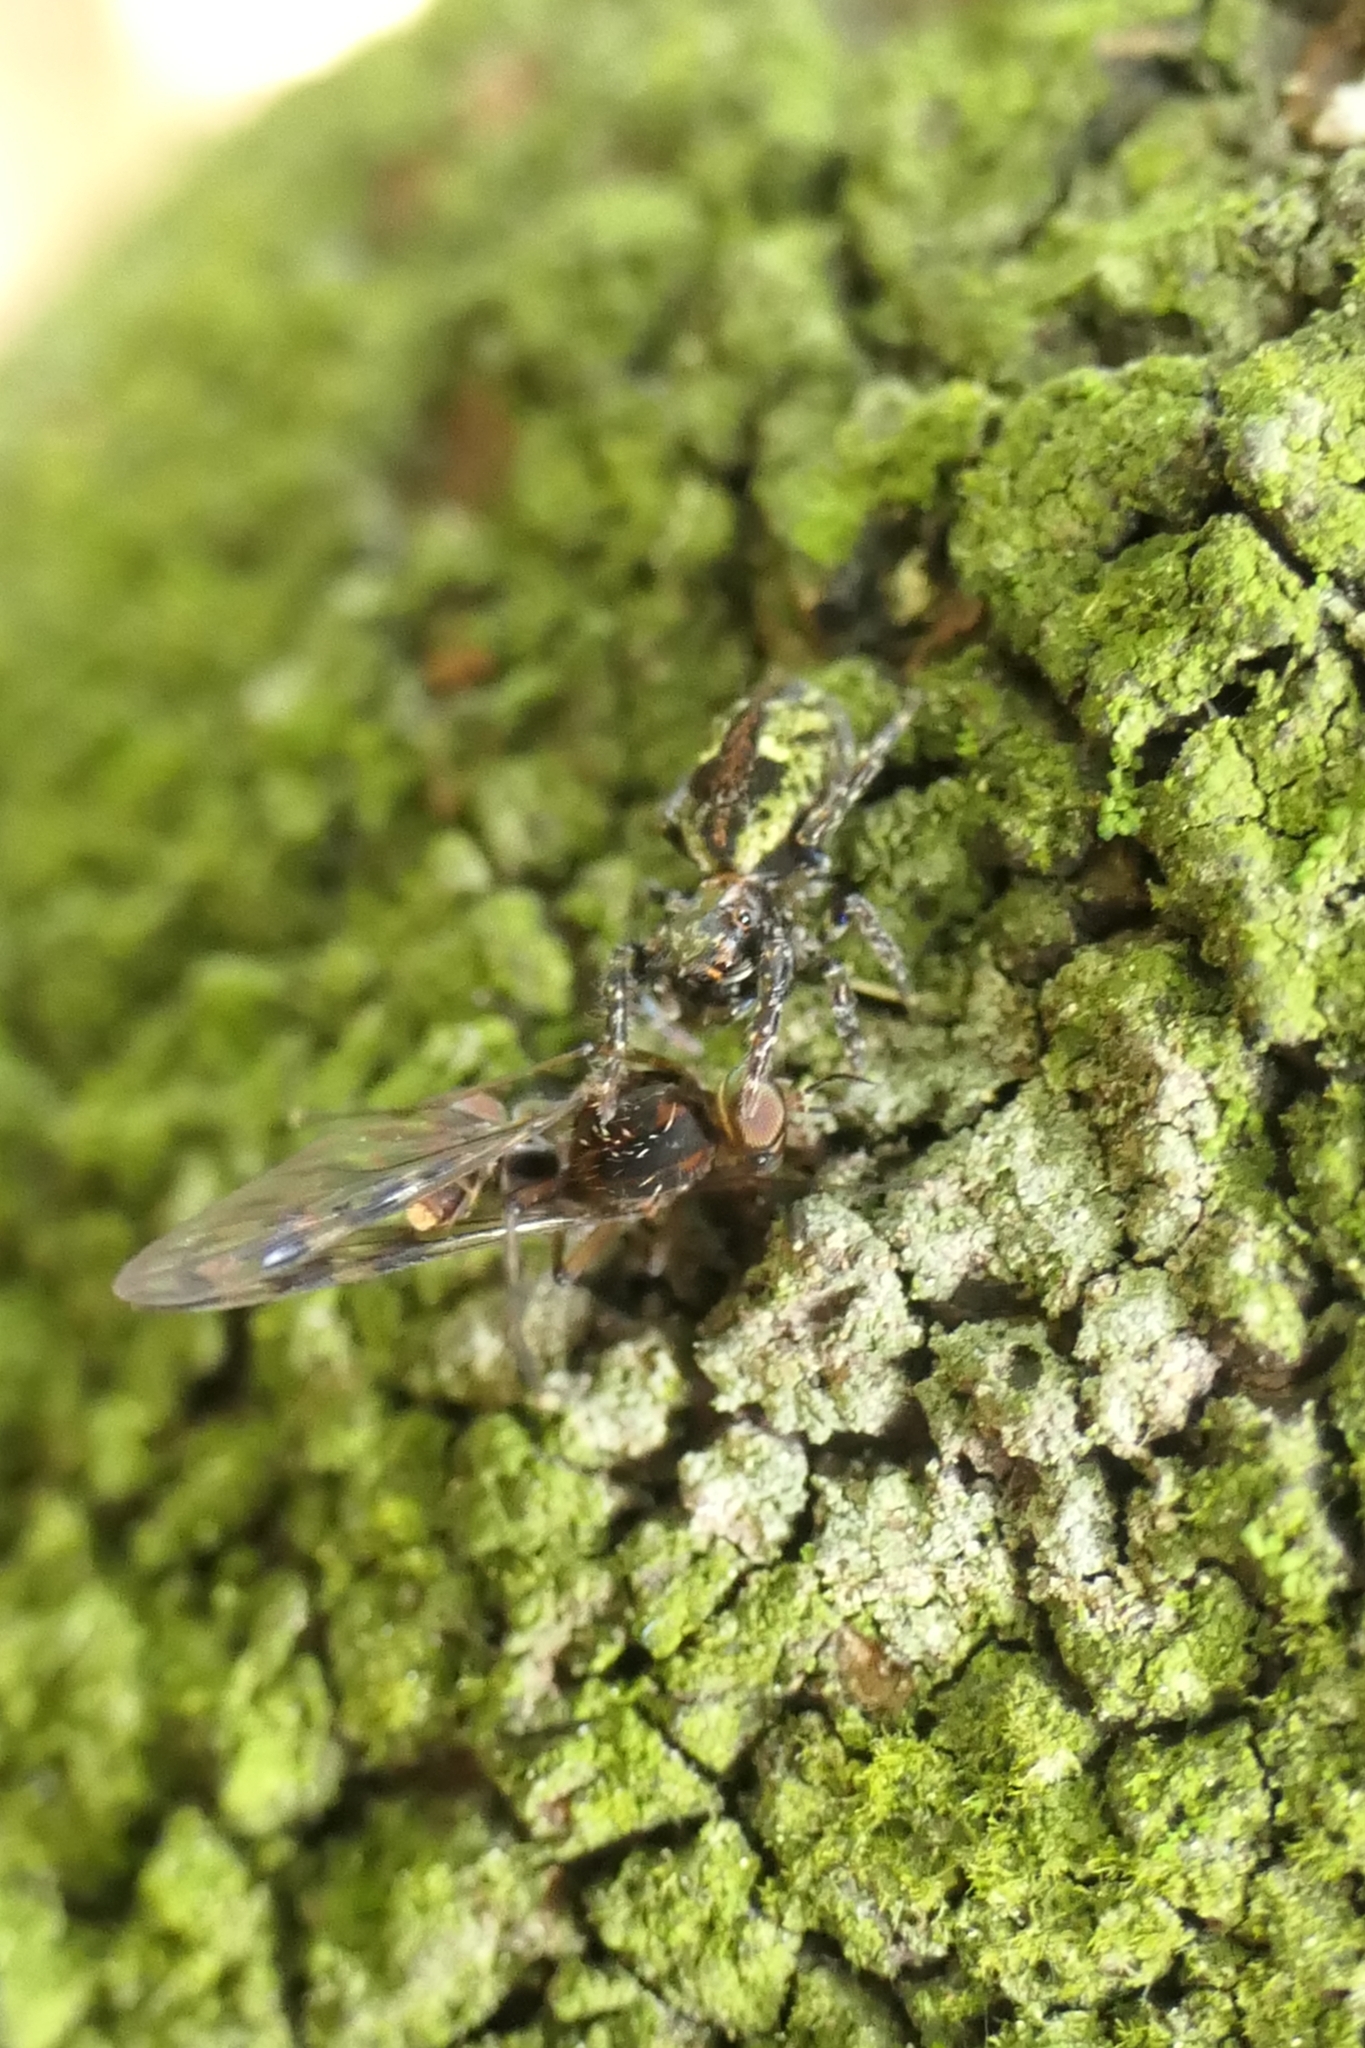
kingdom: Animalia
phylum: Arthropoda
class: Arachnida
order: Araneae
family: Salticidae
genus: Hinewaia
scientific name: Hinewaia embolica
